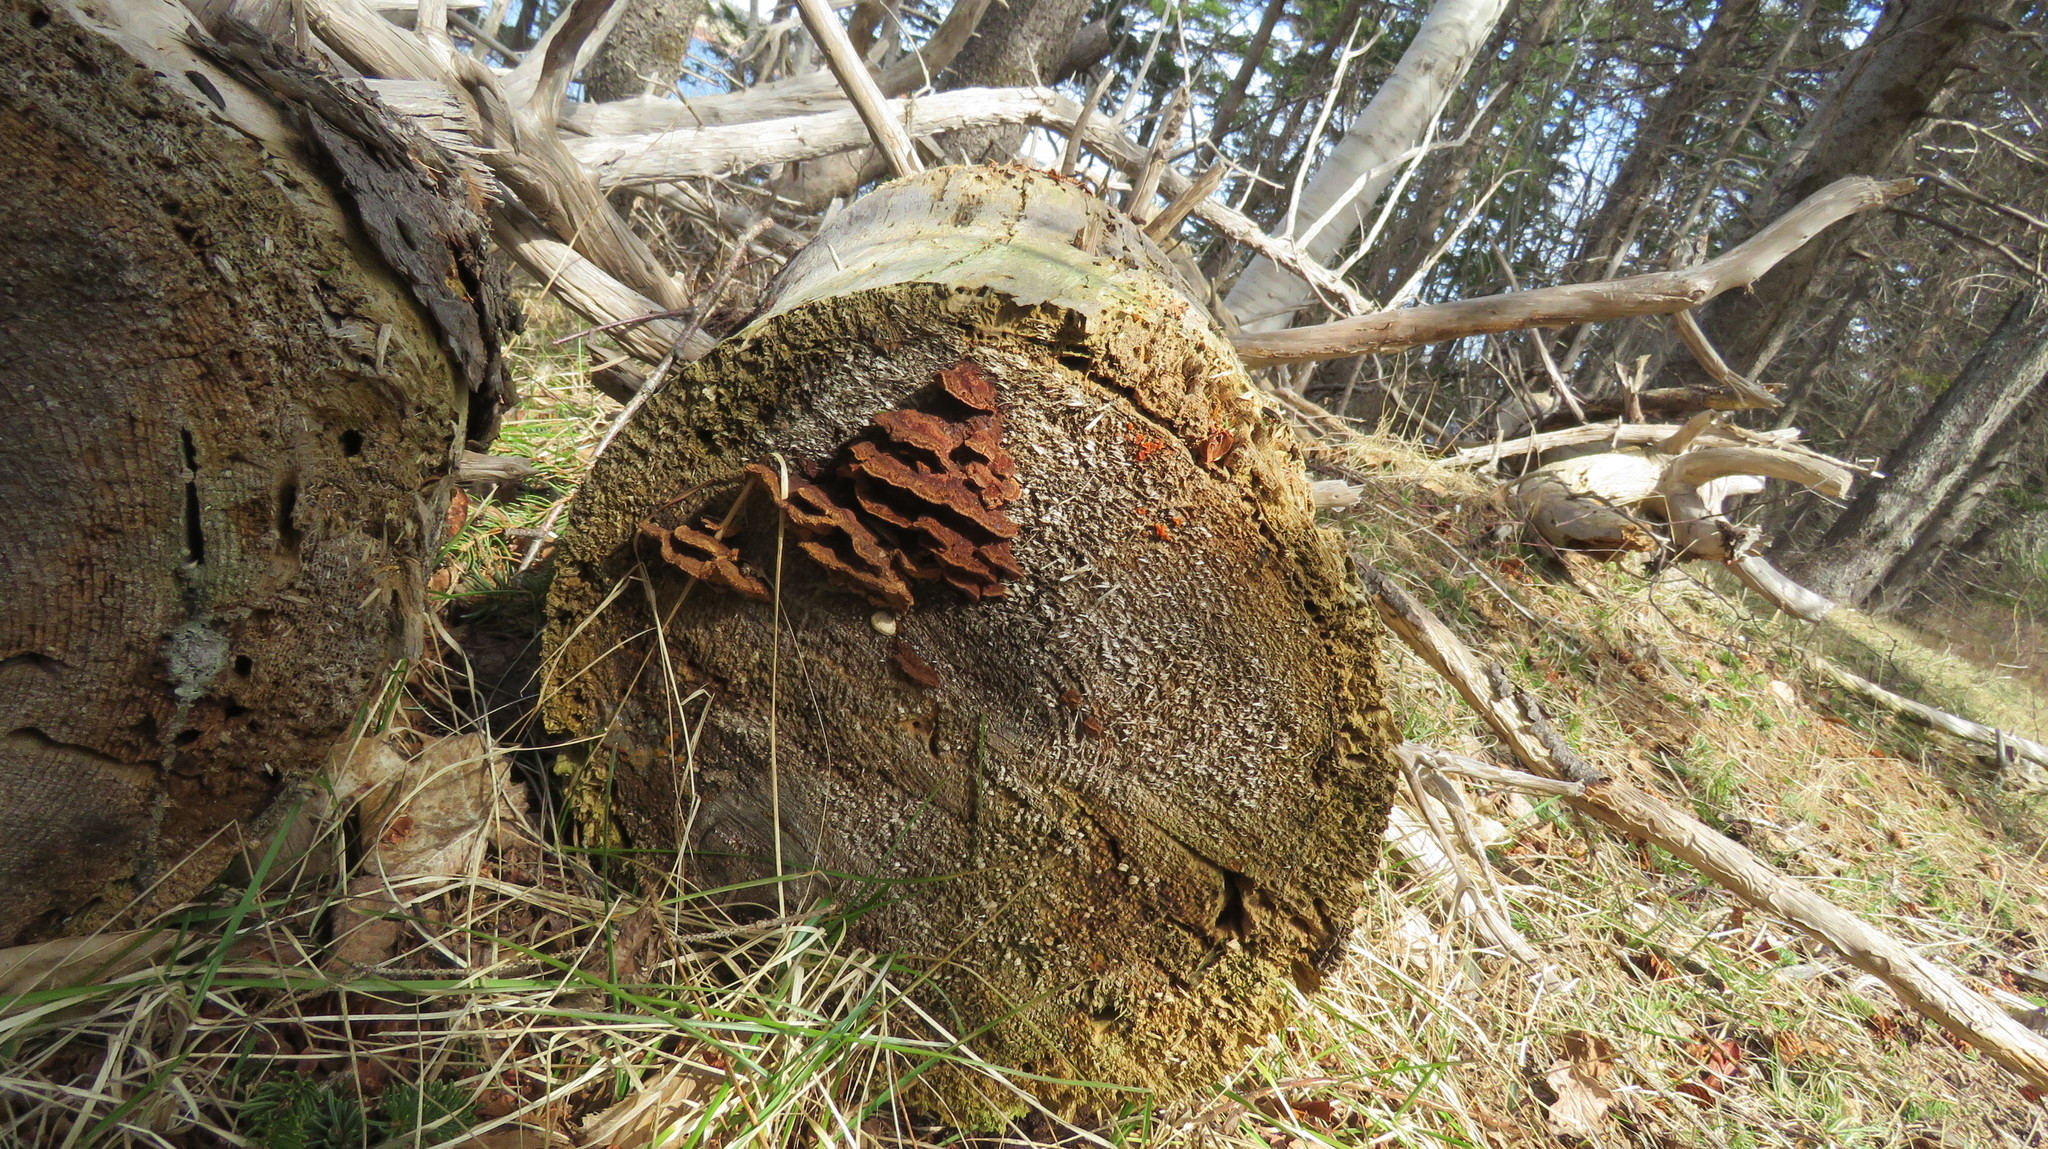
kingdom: Fungi
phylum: Basidiomycota
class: Agaricomycetes
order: Gloeophyllales
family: Gloeophyllaceae
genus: Gloeophyllum
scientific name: Gloeophyllum sepiarium
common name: Conifer mazegill
